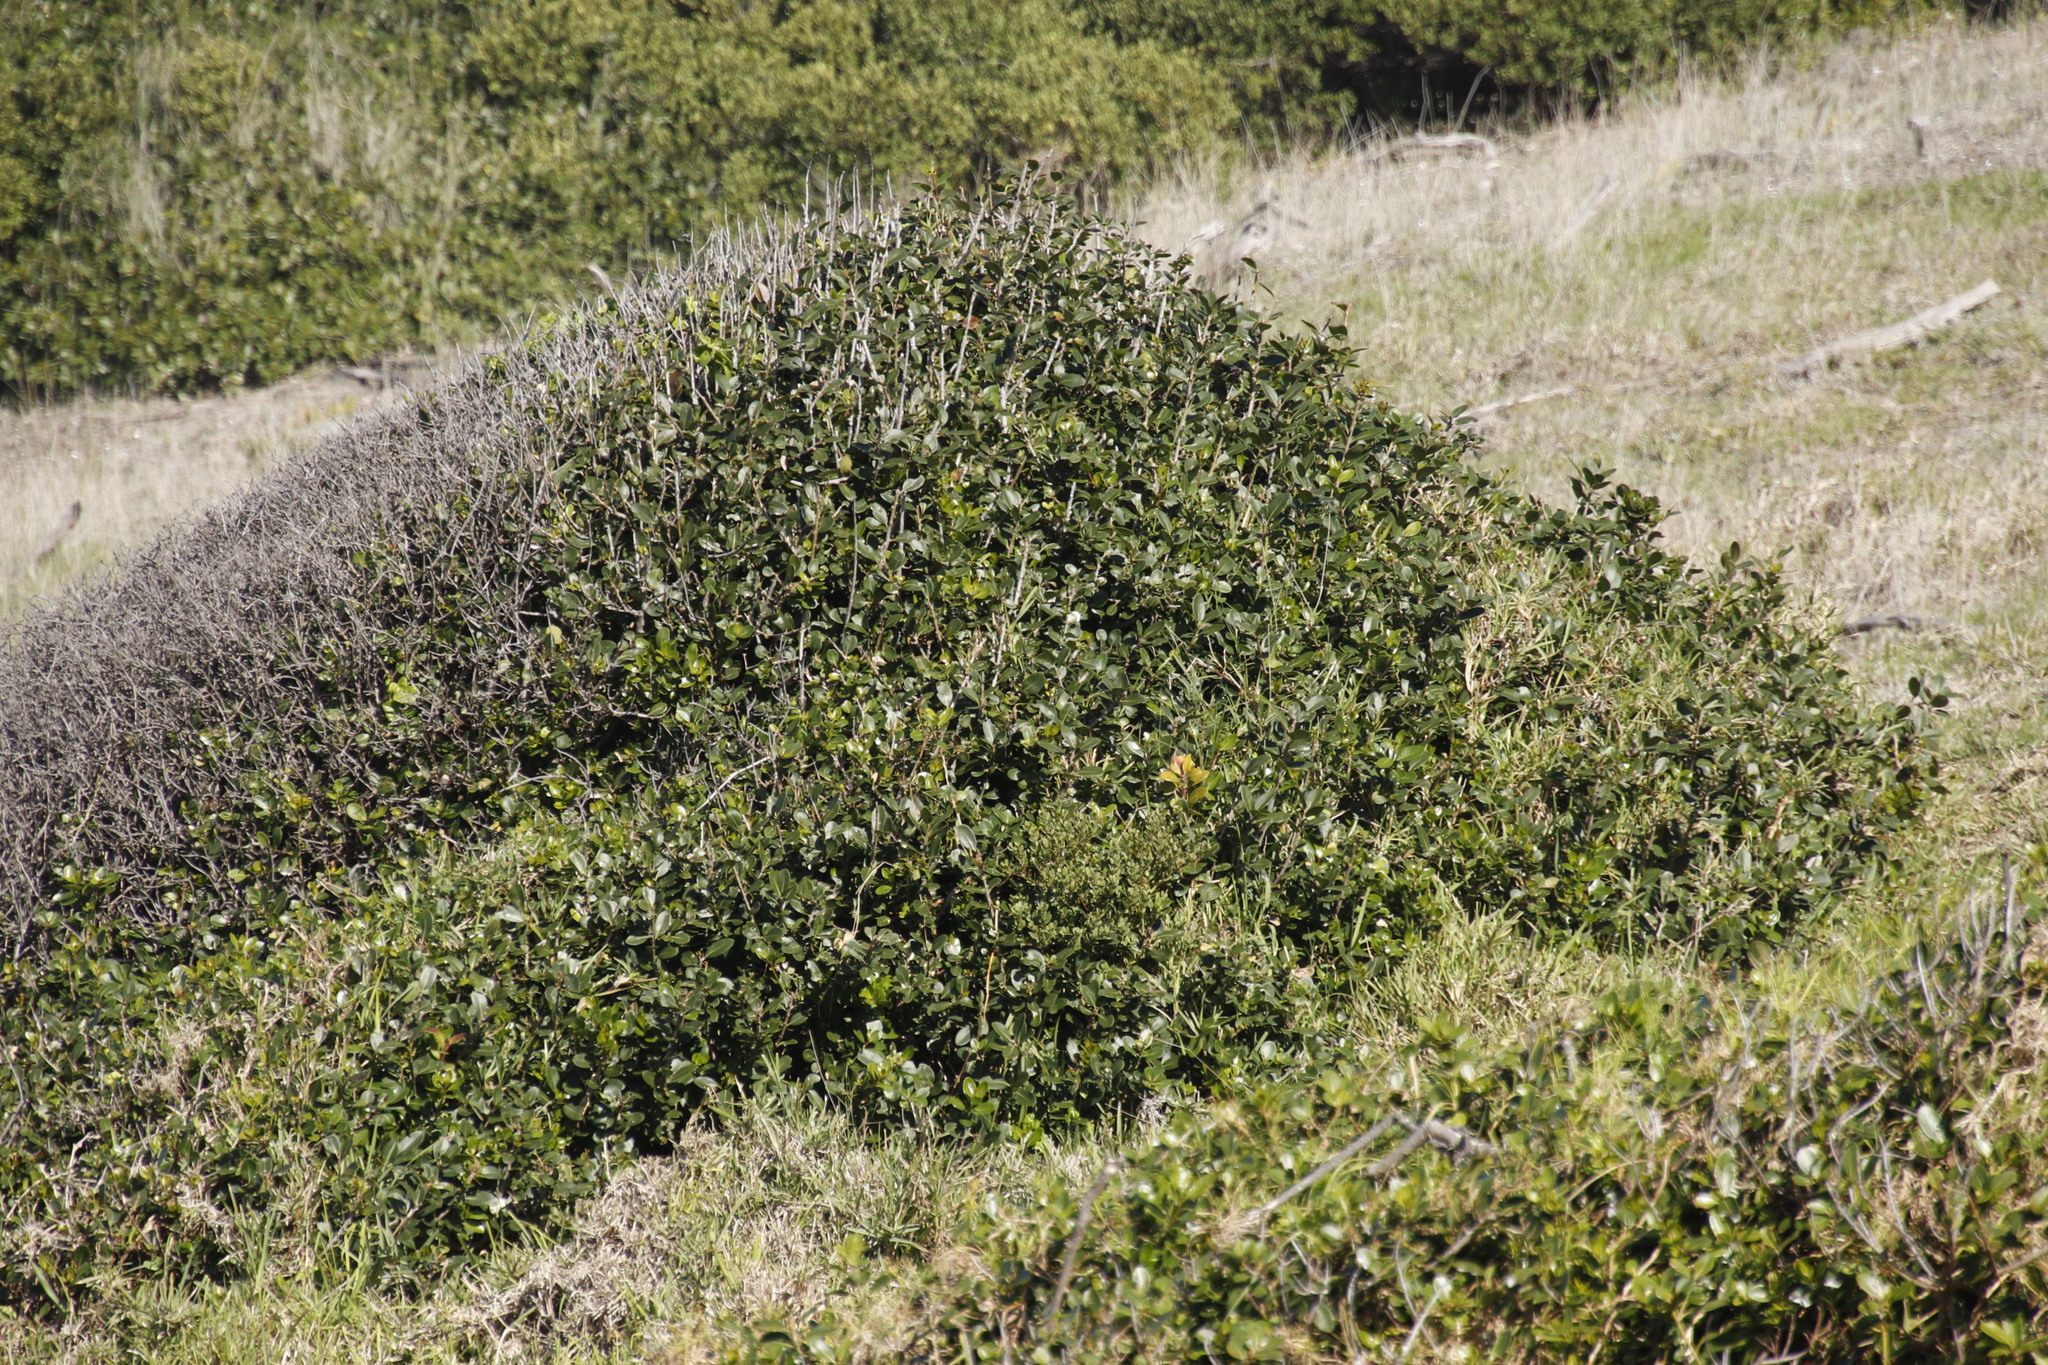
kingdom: Plantae
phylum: Tracheophyta
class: Magnoliopsida
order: Ericales
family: Sapotaceae
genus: Sideroxylon
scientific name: Sideroxylon inerme
